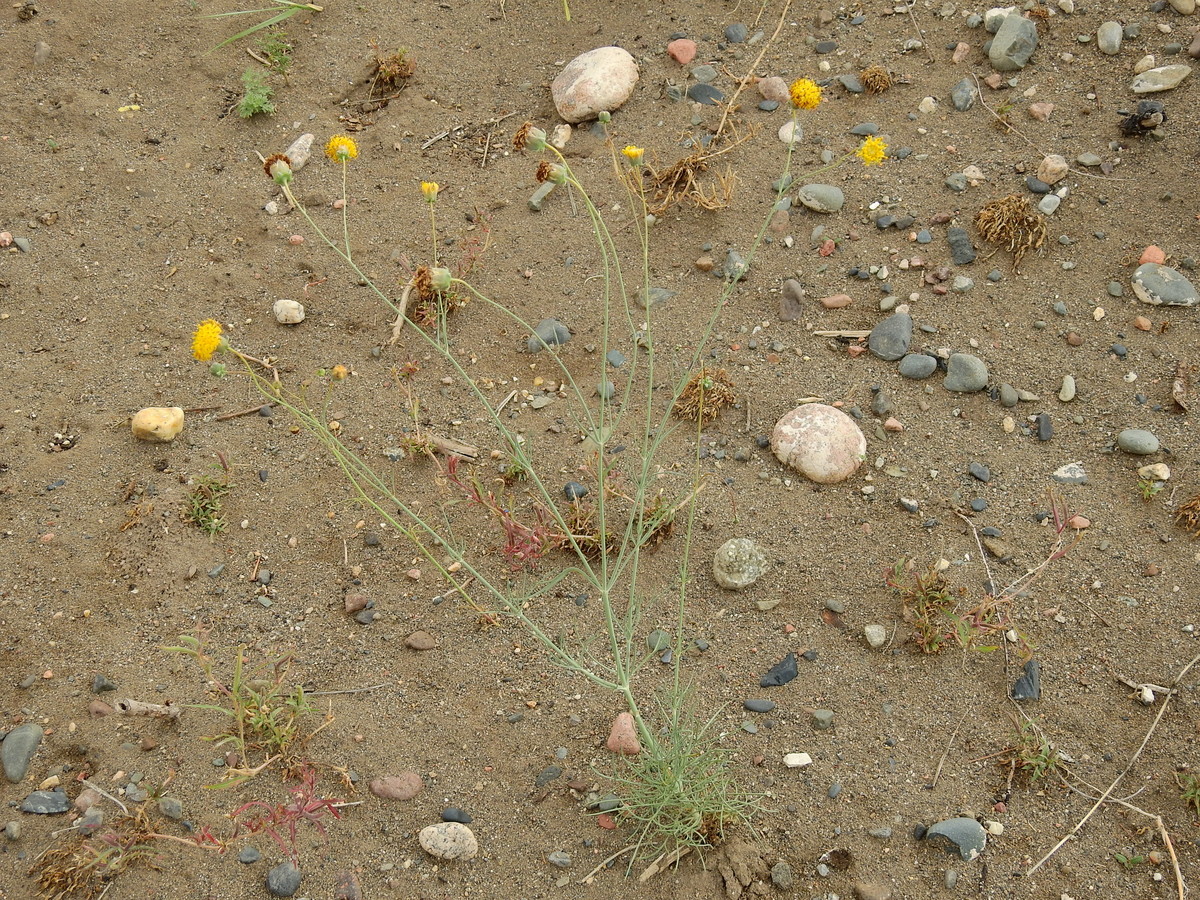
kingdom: Plantae
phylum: Tracheophyta
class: Magnoliopsida
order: Asterales
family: Asteraceae
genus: Thelesperma
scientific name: Thelesperma megapotamicum
